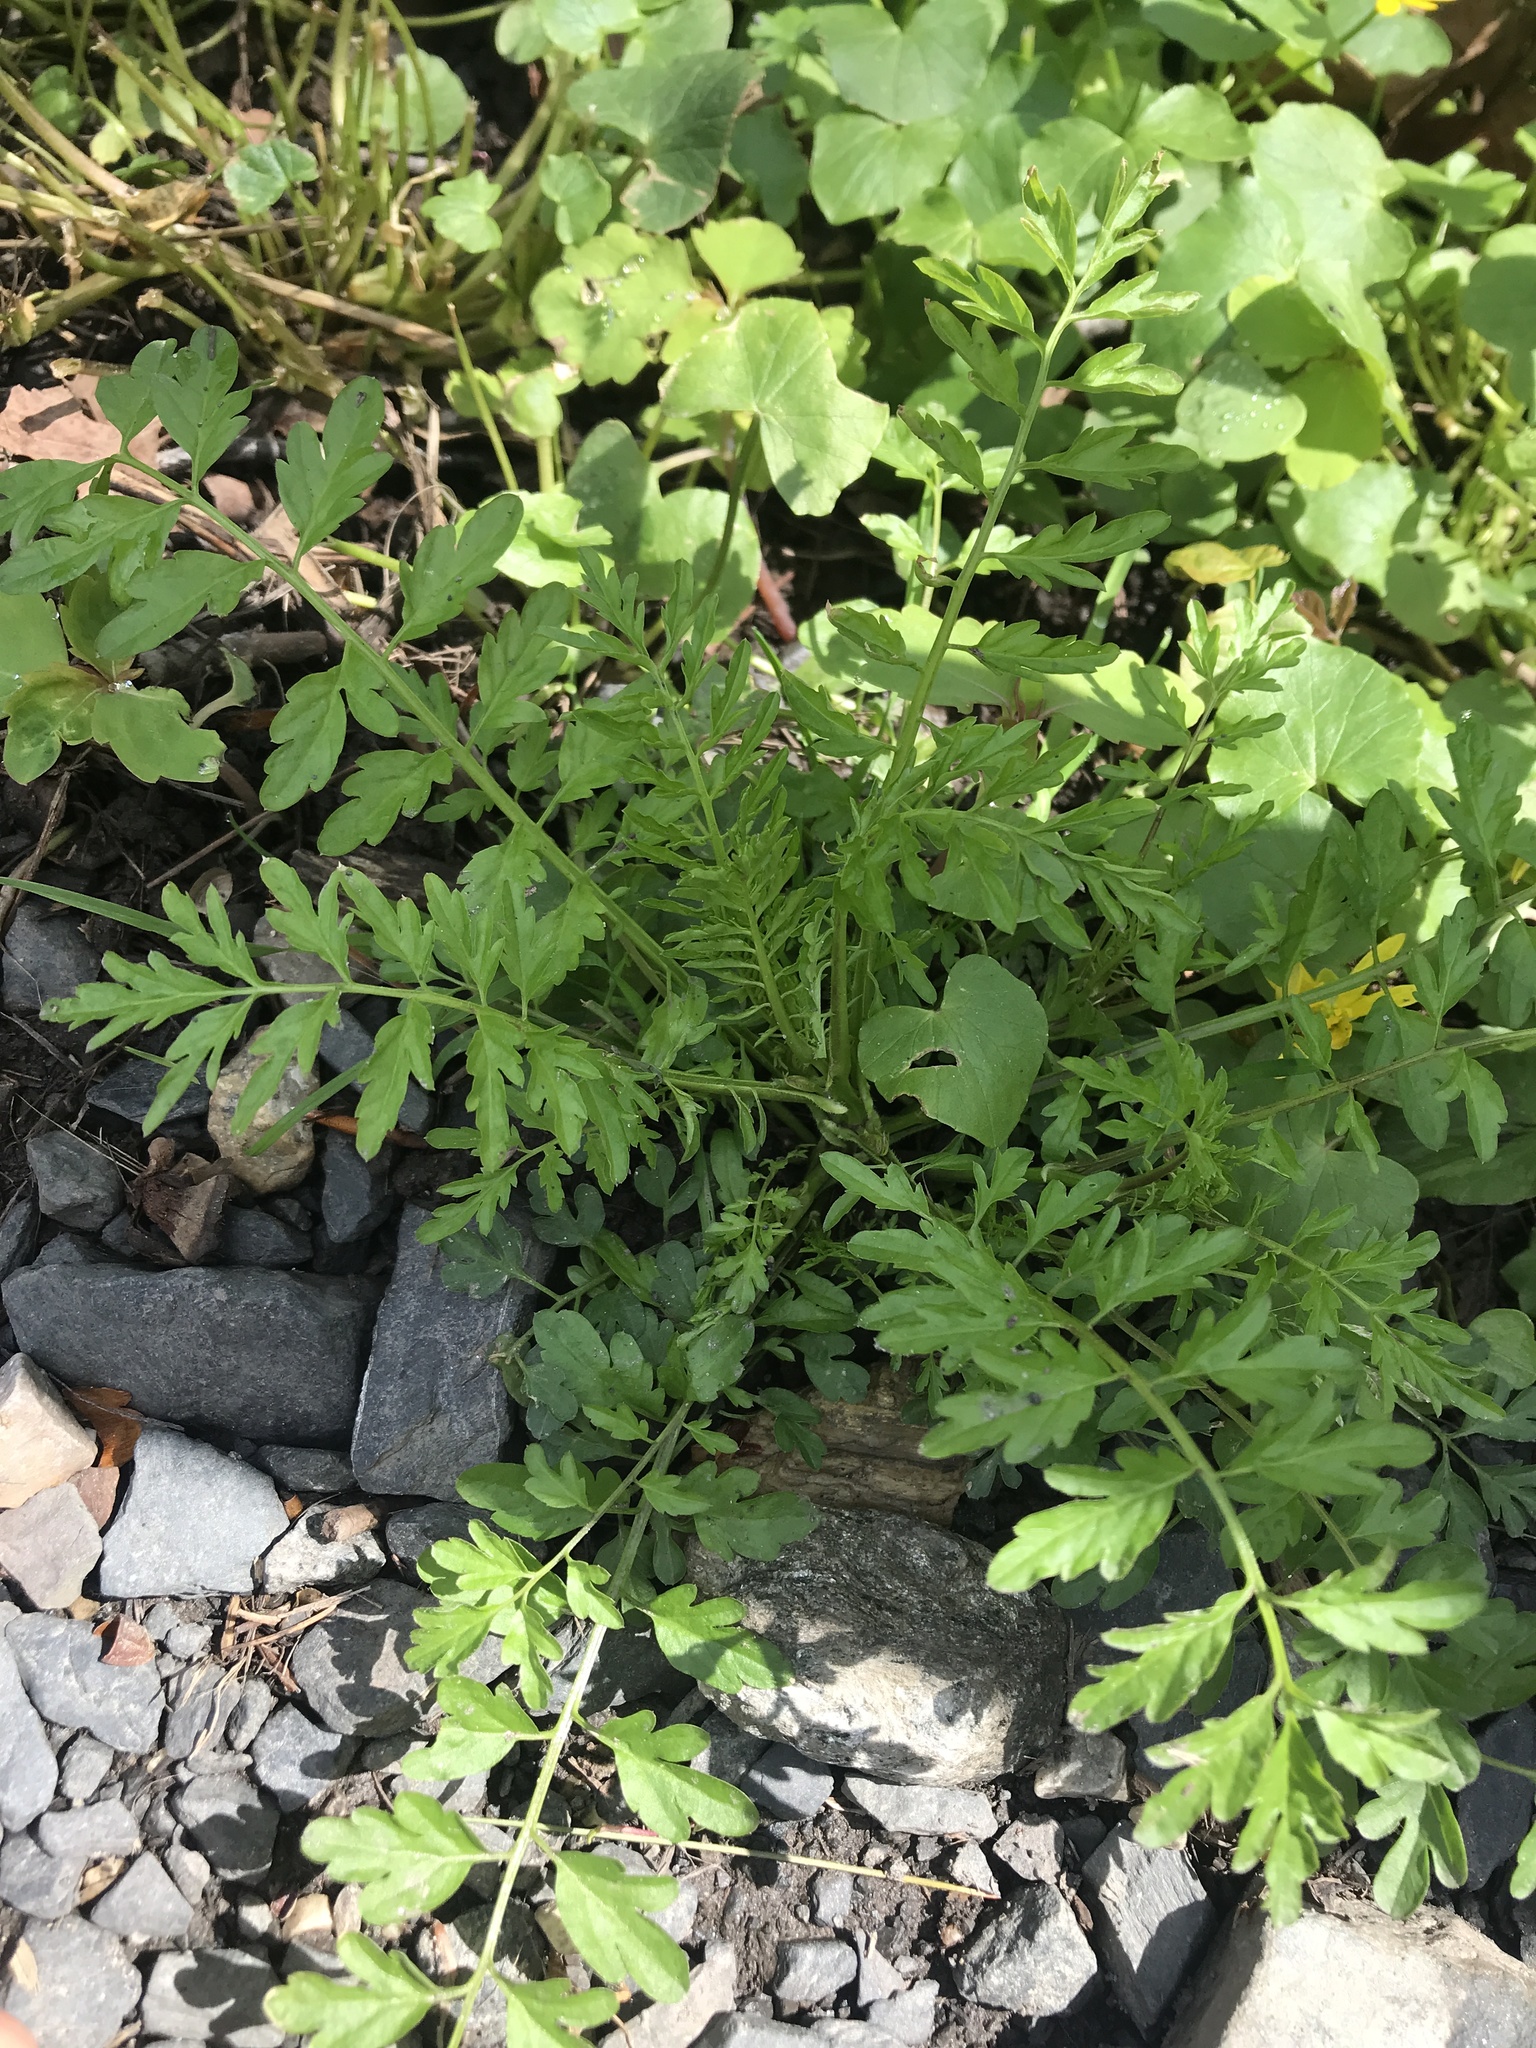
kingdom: Plantae
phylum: Tracheophyta
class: Magnoliopsida
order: Brassicales
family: Brassicaceae
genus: Cardamine
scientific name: Cardamine impatiens
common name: Narrow-leaved bitter-cress
